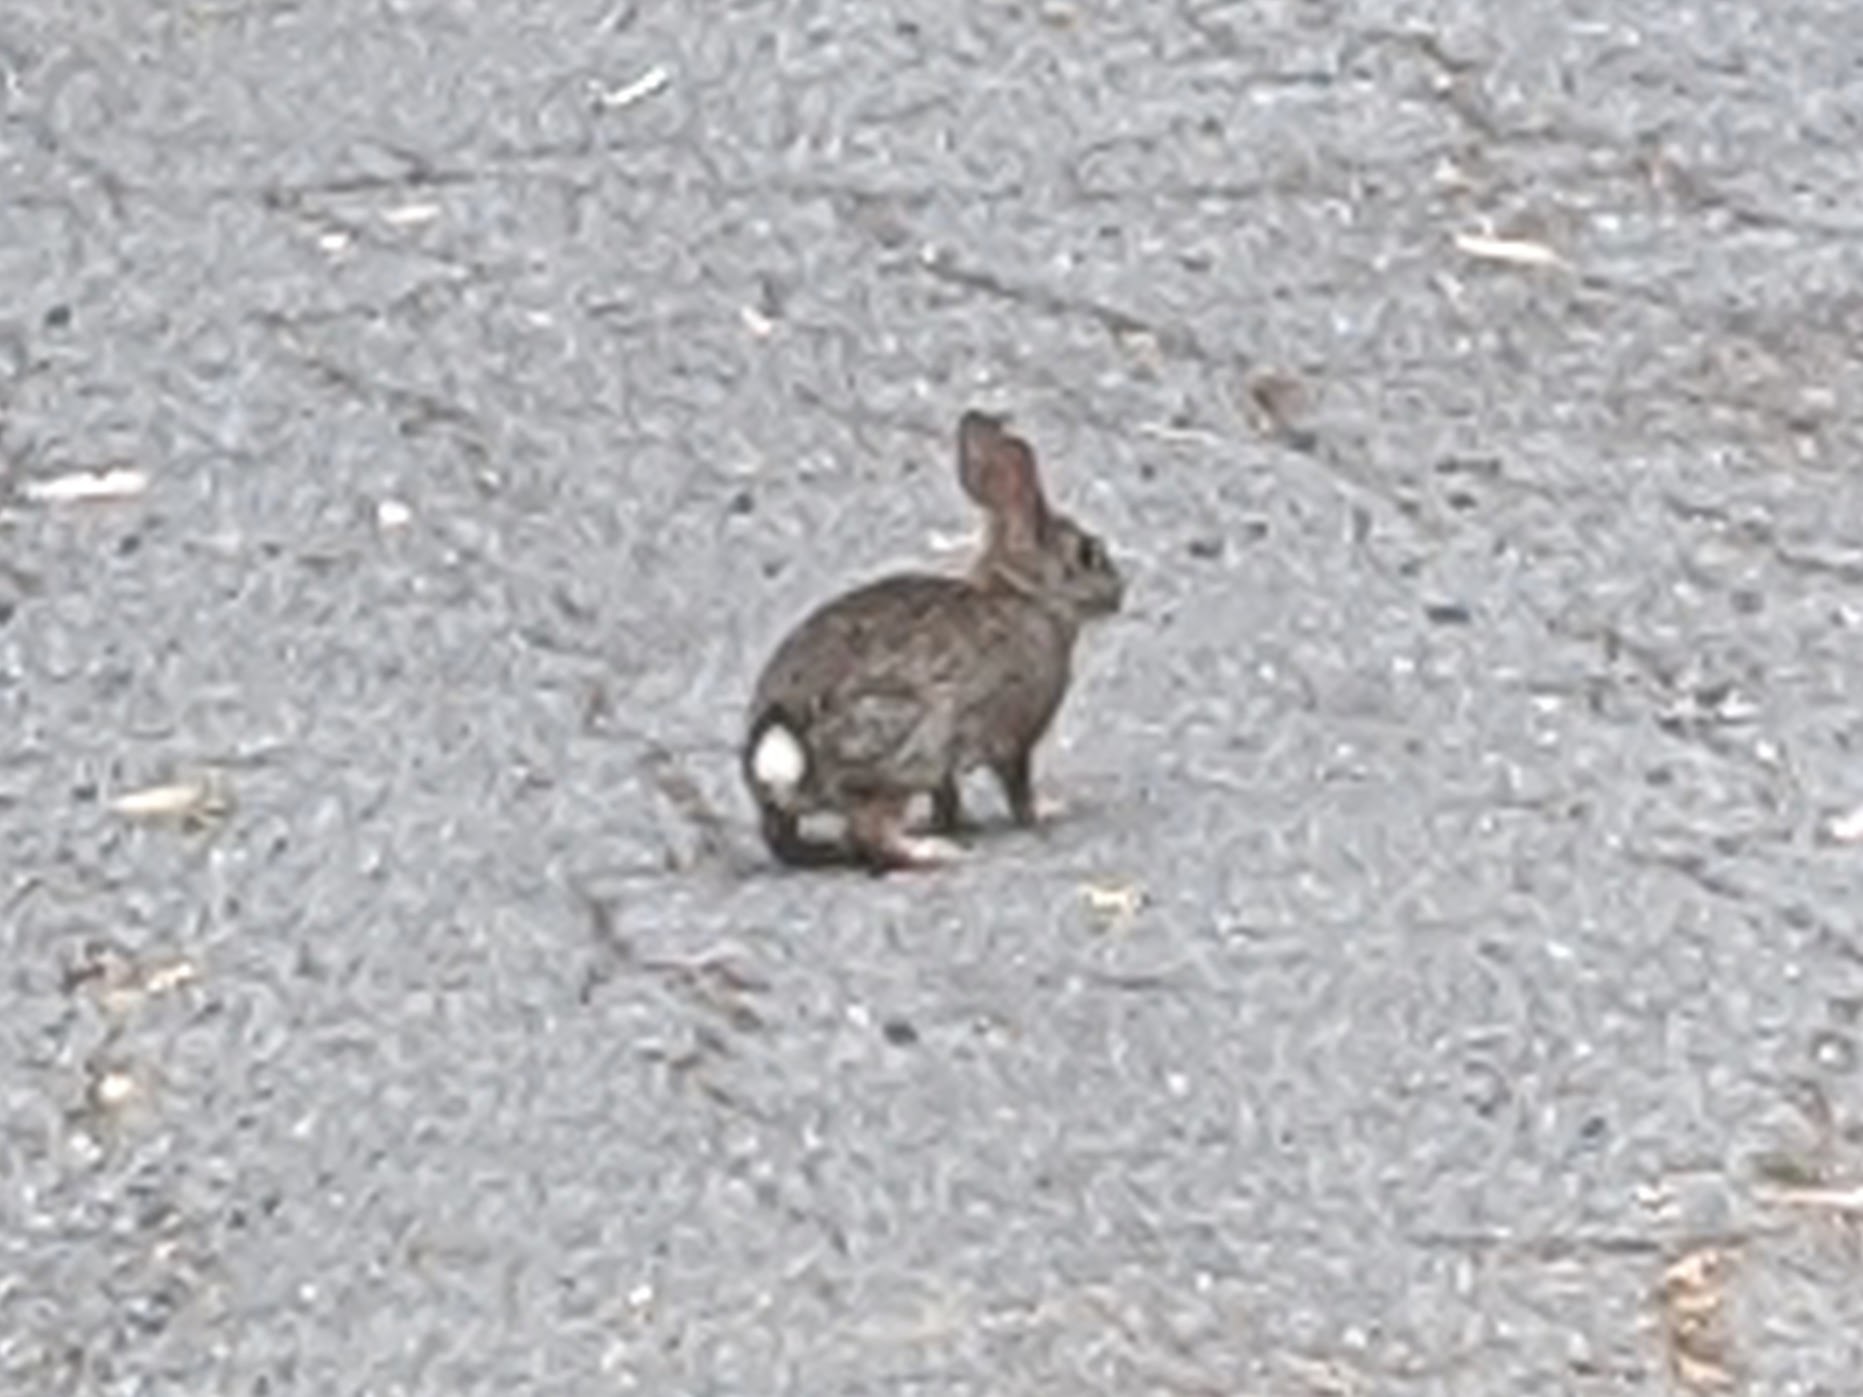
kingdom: Animalia
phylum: Chordata
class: Mammalia
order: Lagomorpha
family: Leporidae
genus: Sylvilagus
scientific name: Sylvilagus bachmani
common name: Brush rabbit
